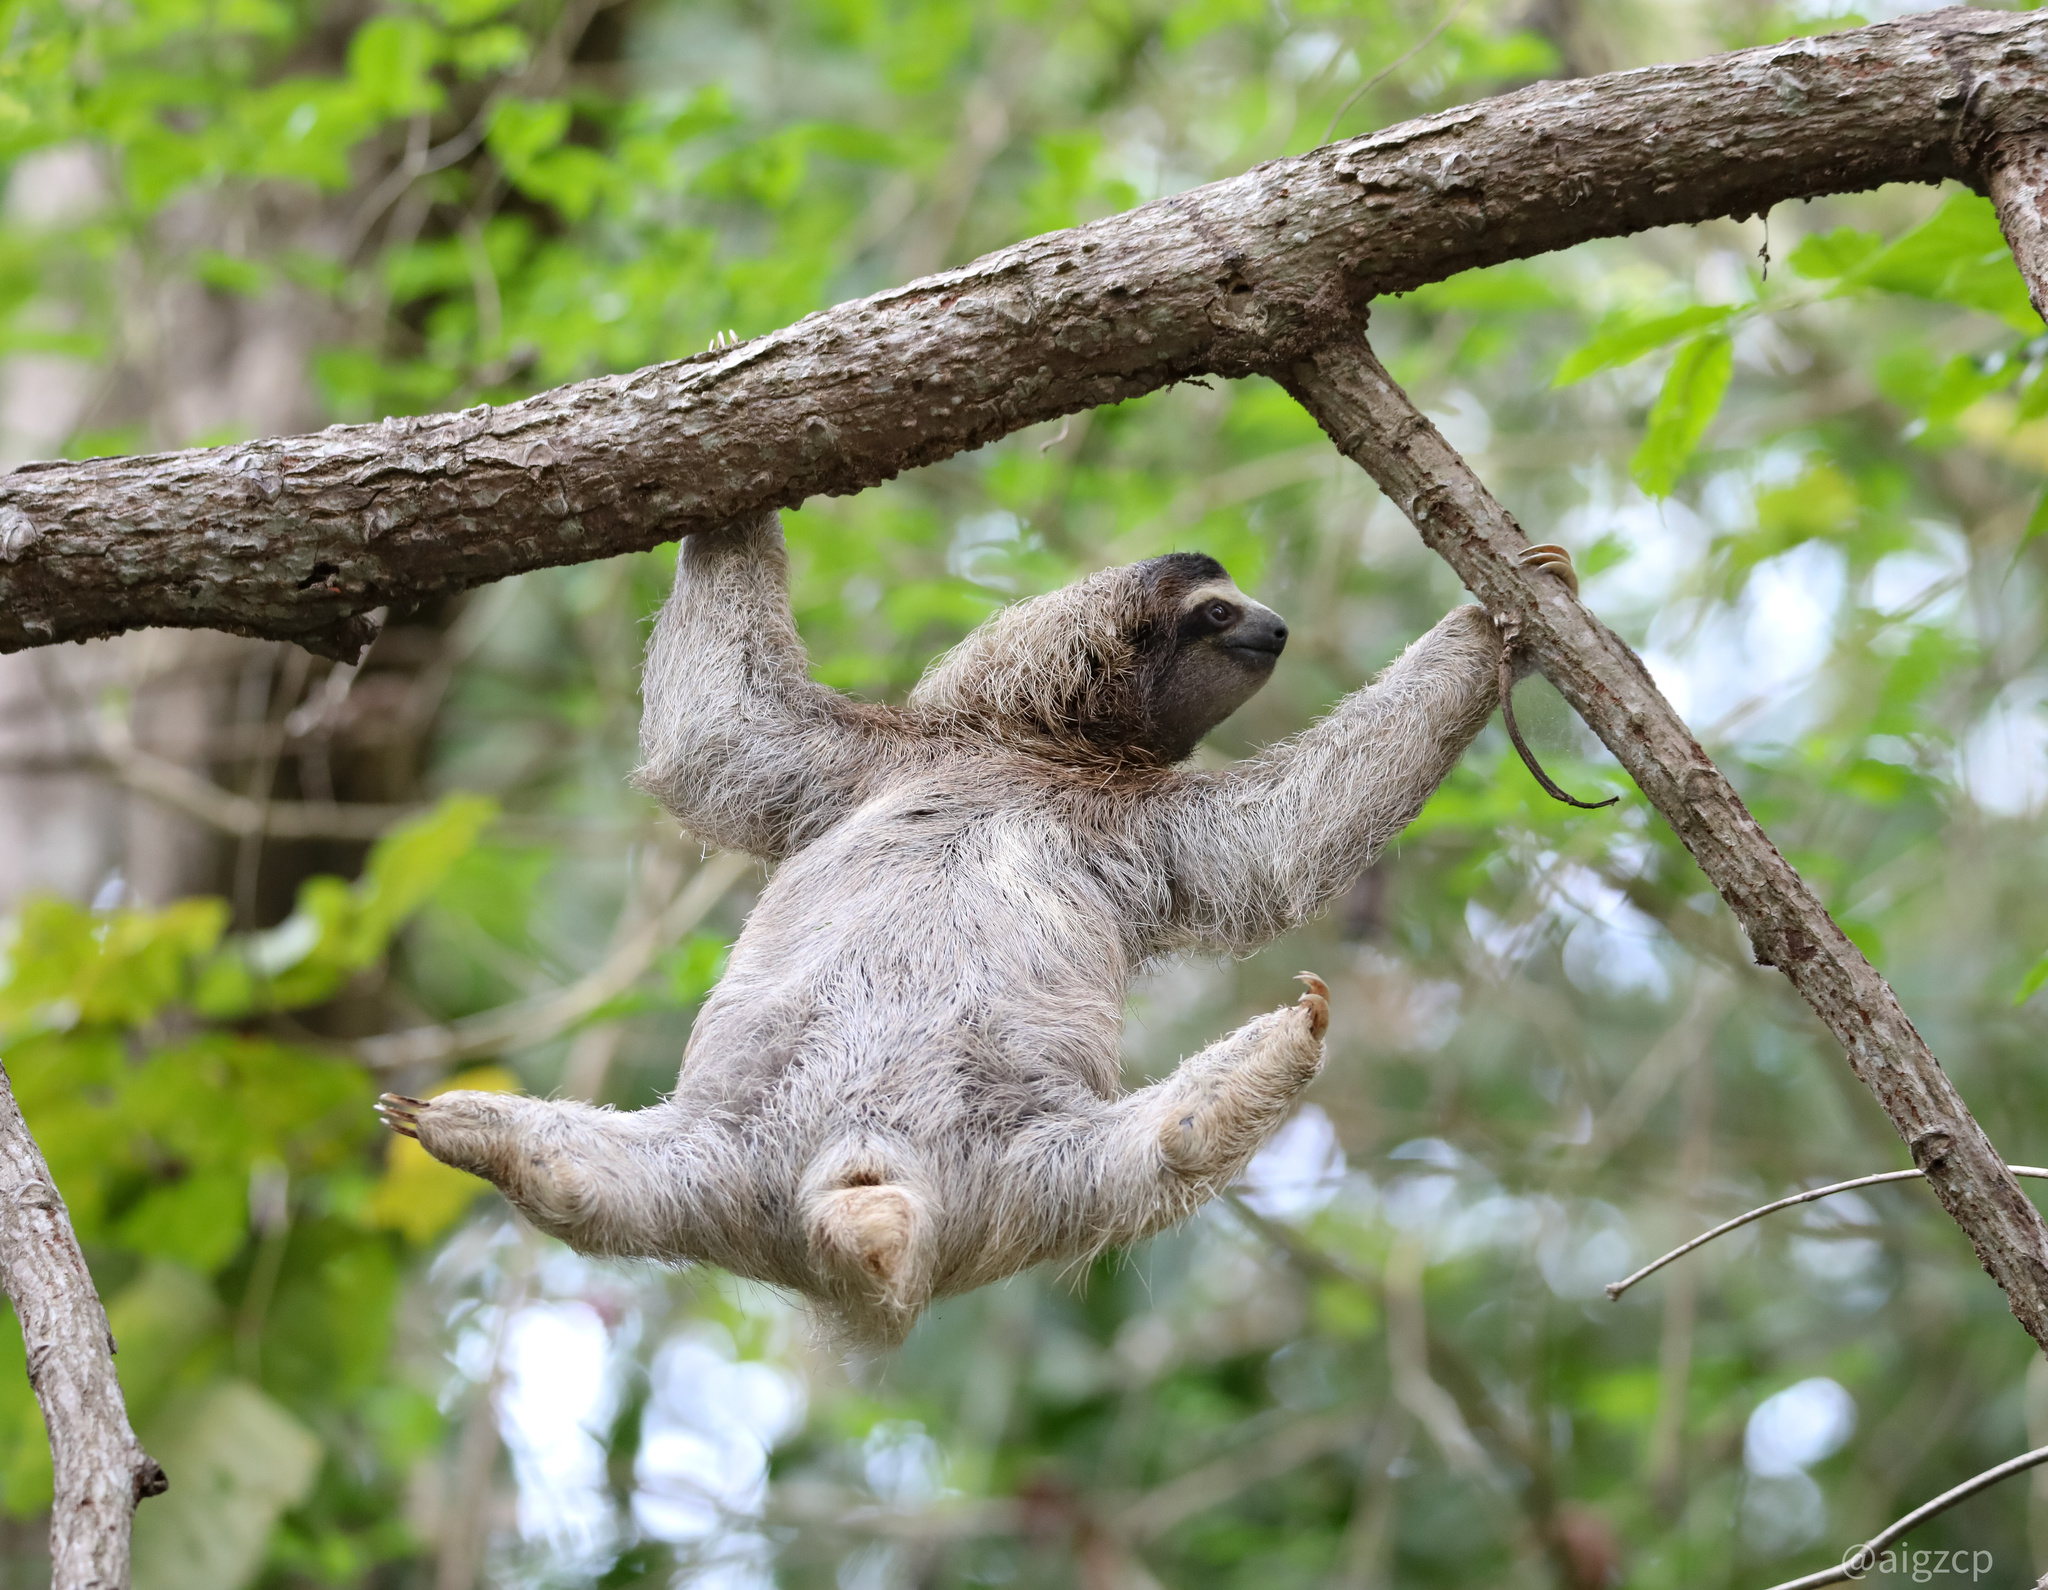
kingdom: Animalia
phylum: Chordata
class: Mammalia
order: Pilosa
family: Bradypodidae
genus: Bradypus
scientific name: Bradypus variegatus
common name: Brown-throated three-toed sloth
